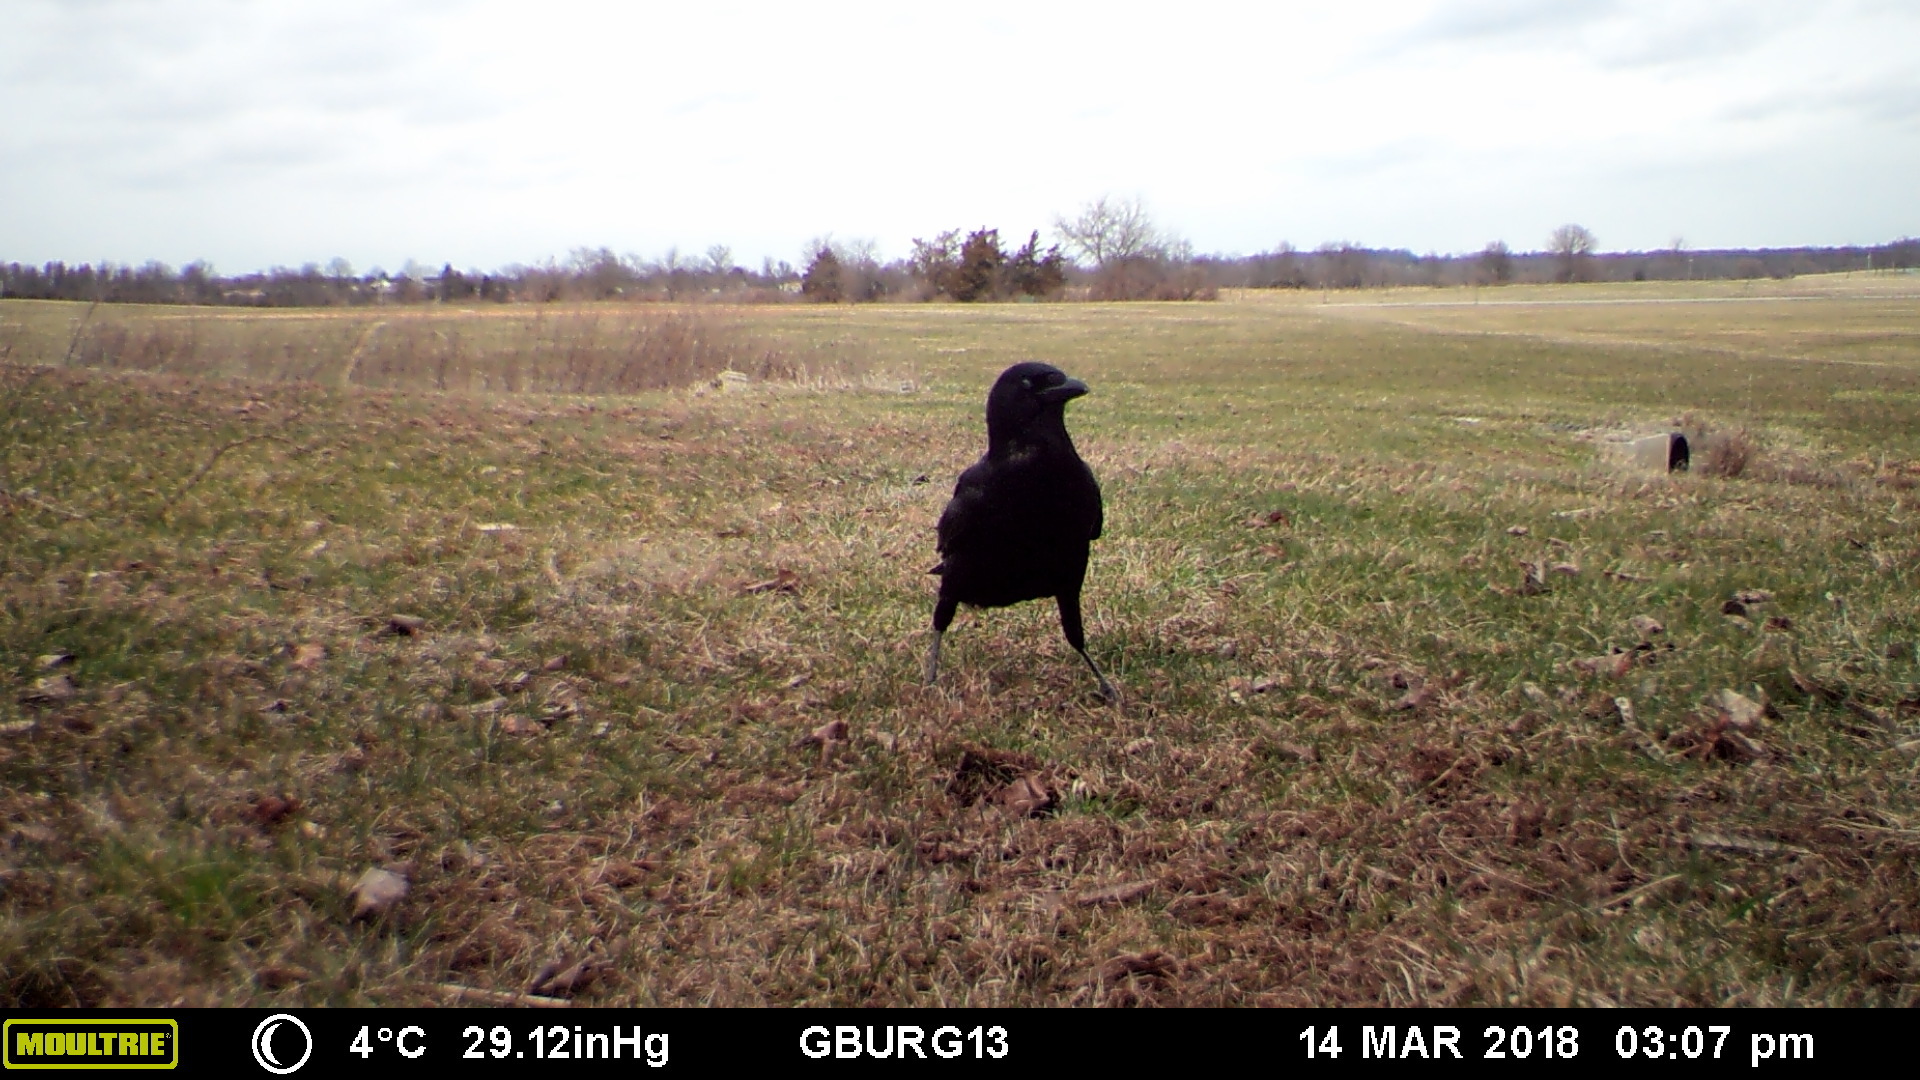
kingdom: Animalia
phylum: Chordata
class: Aves
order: Passeriformes
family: Corvidae
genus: Corvus
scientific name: Corvus brachyrhynchos
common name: American crow
